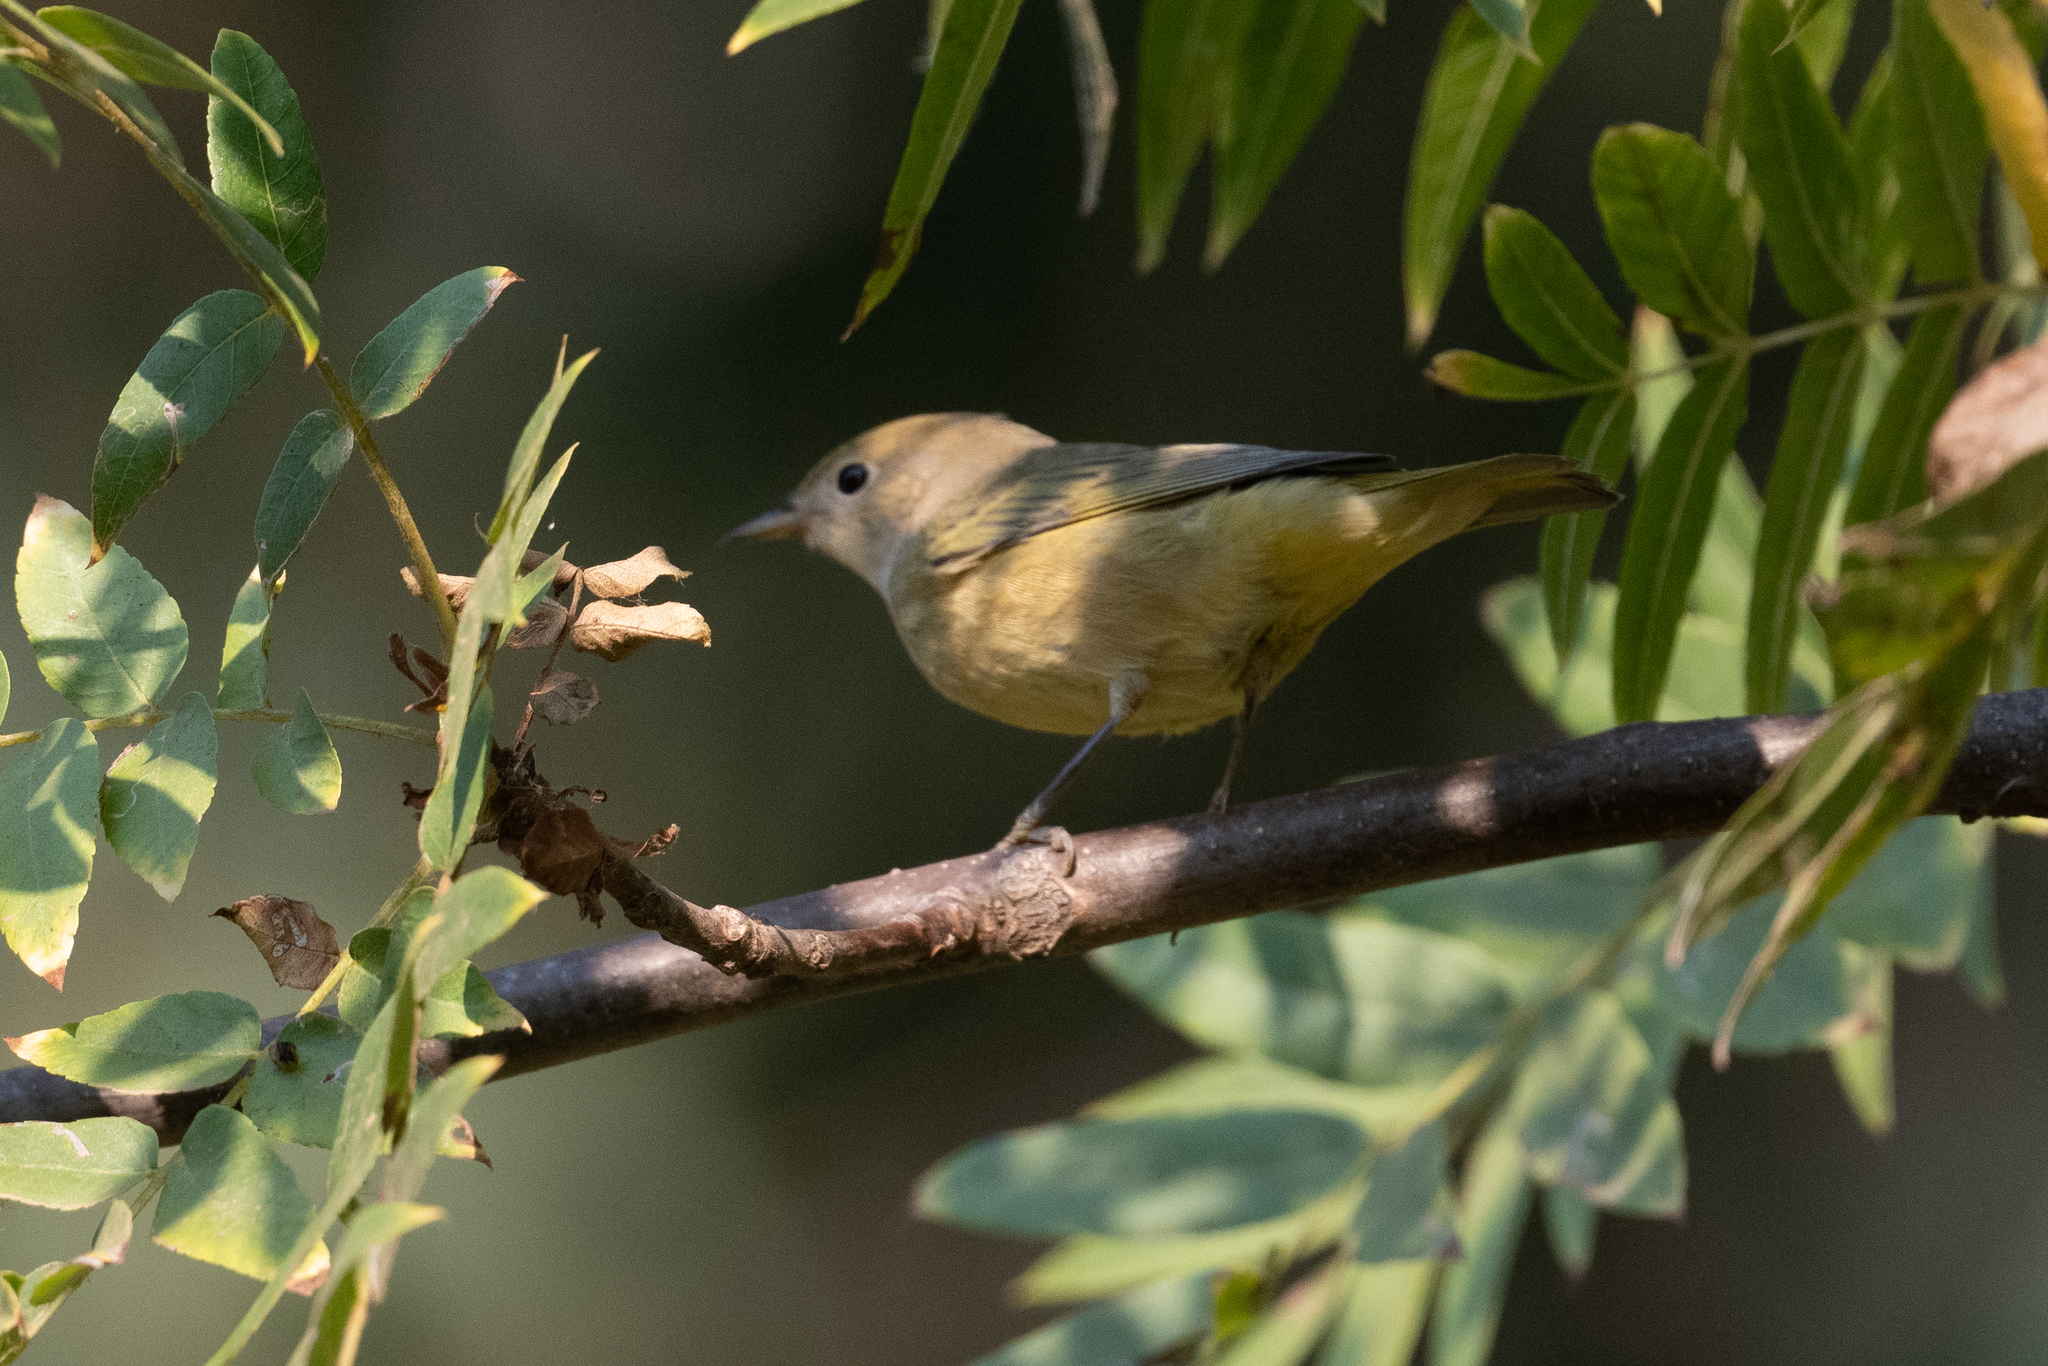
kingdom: Animalia
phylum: Chordata
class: Aves
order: Passeriformes
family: Parulidae
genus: Setophaga
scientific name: Setophaga petechia
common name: Yellow warbler
